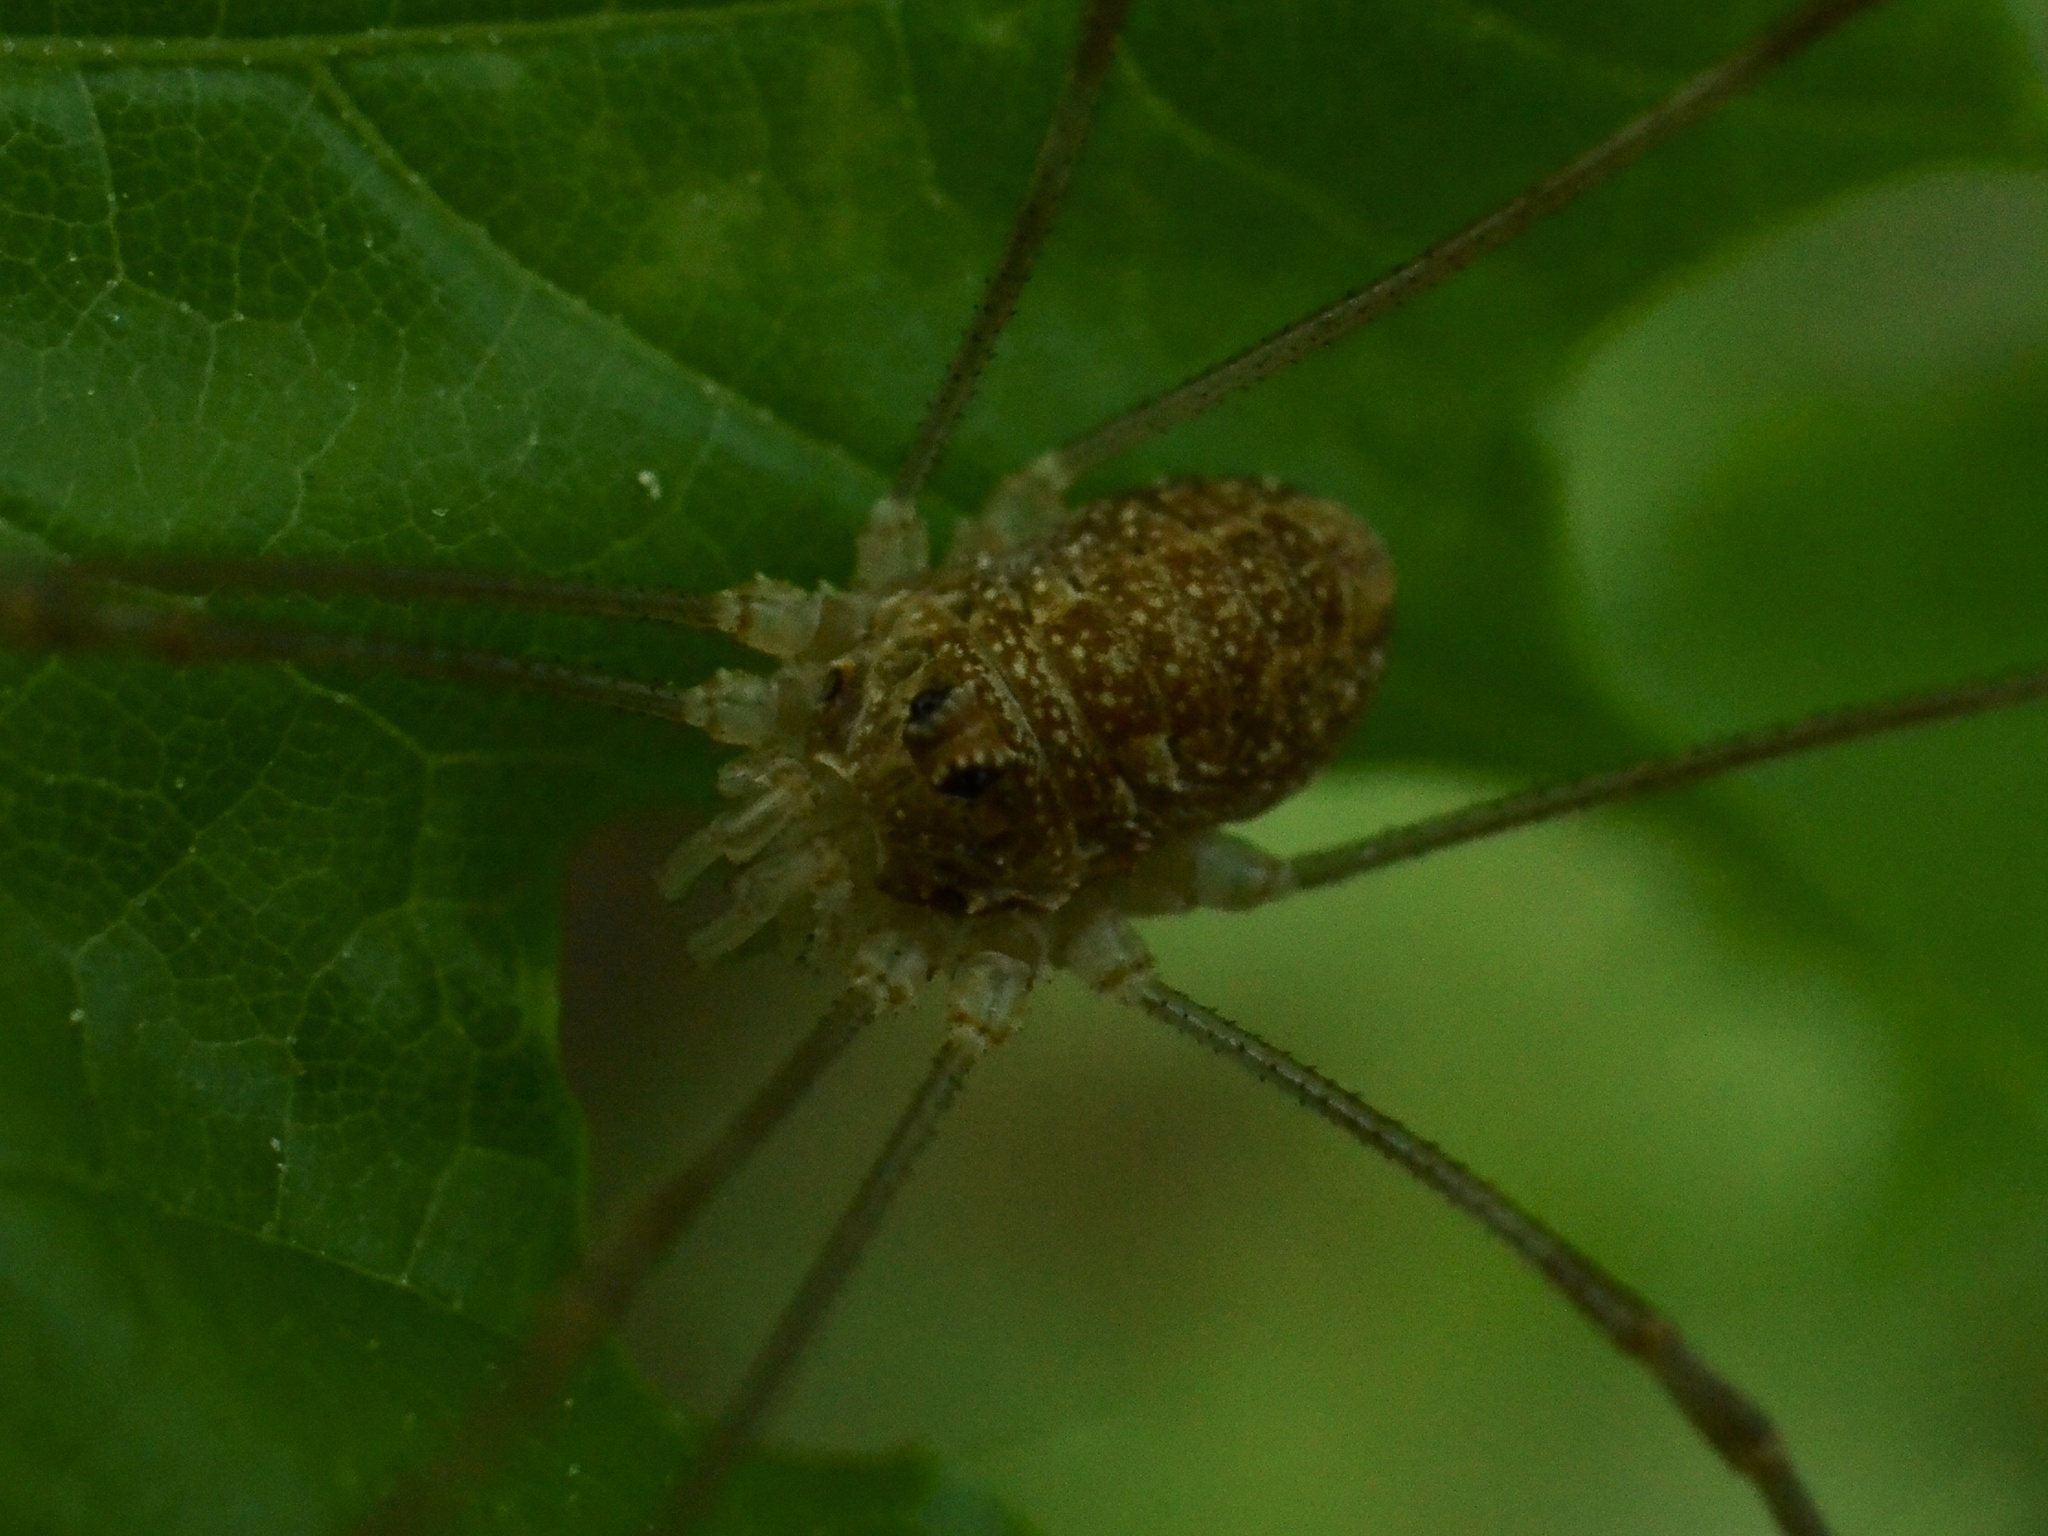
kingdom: Animalia
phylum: Arthropoda
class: Arachnida
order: Opiliones
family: Phalangiidae
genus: Rilaena
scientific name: Rilaena triangularis
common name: Spring harvestman
